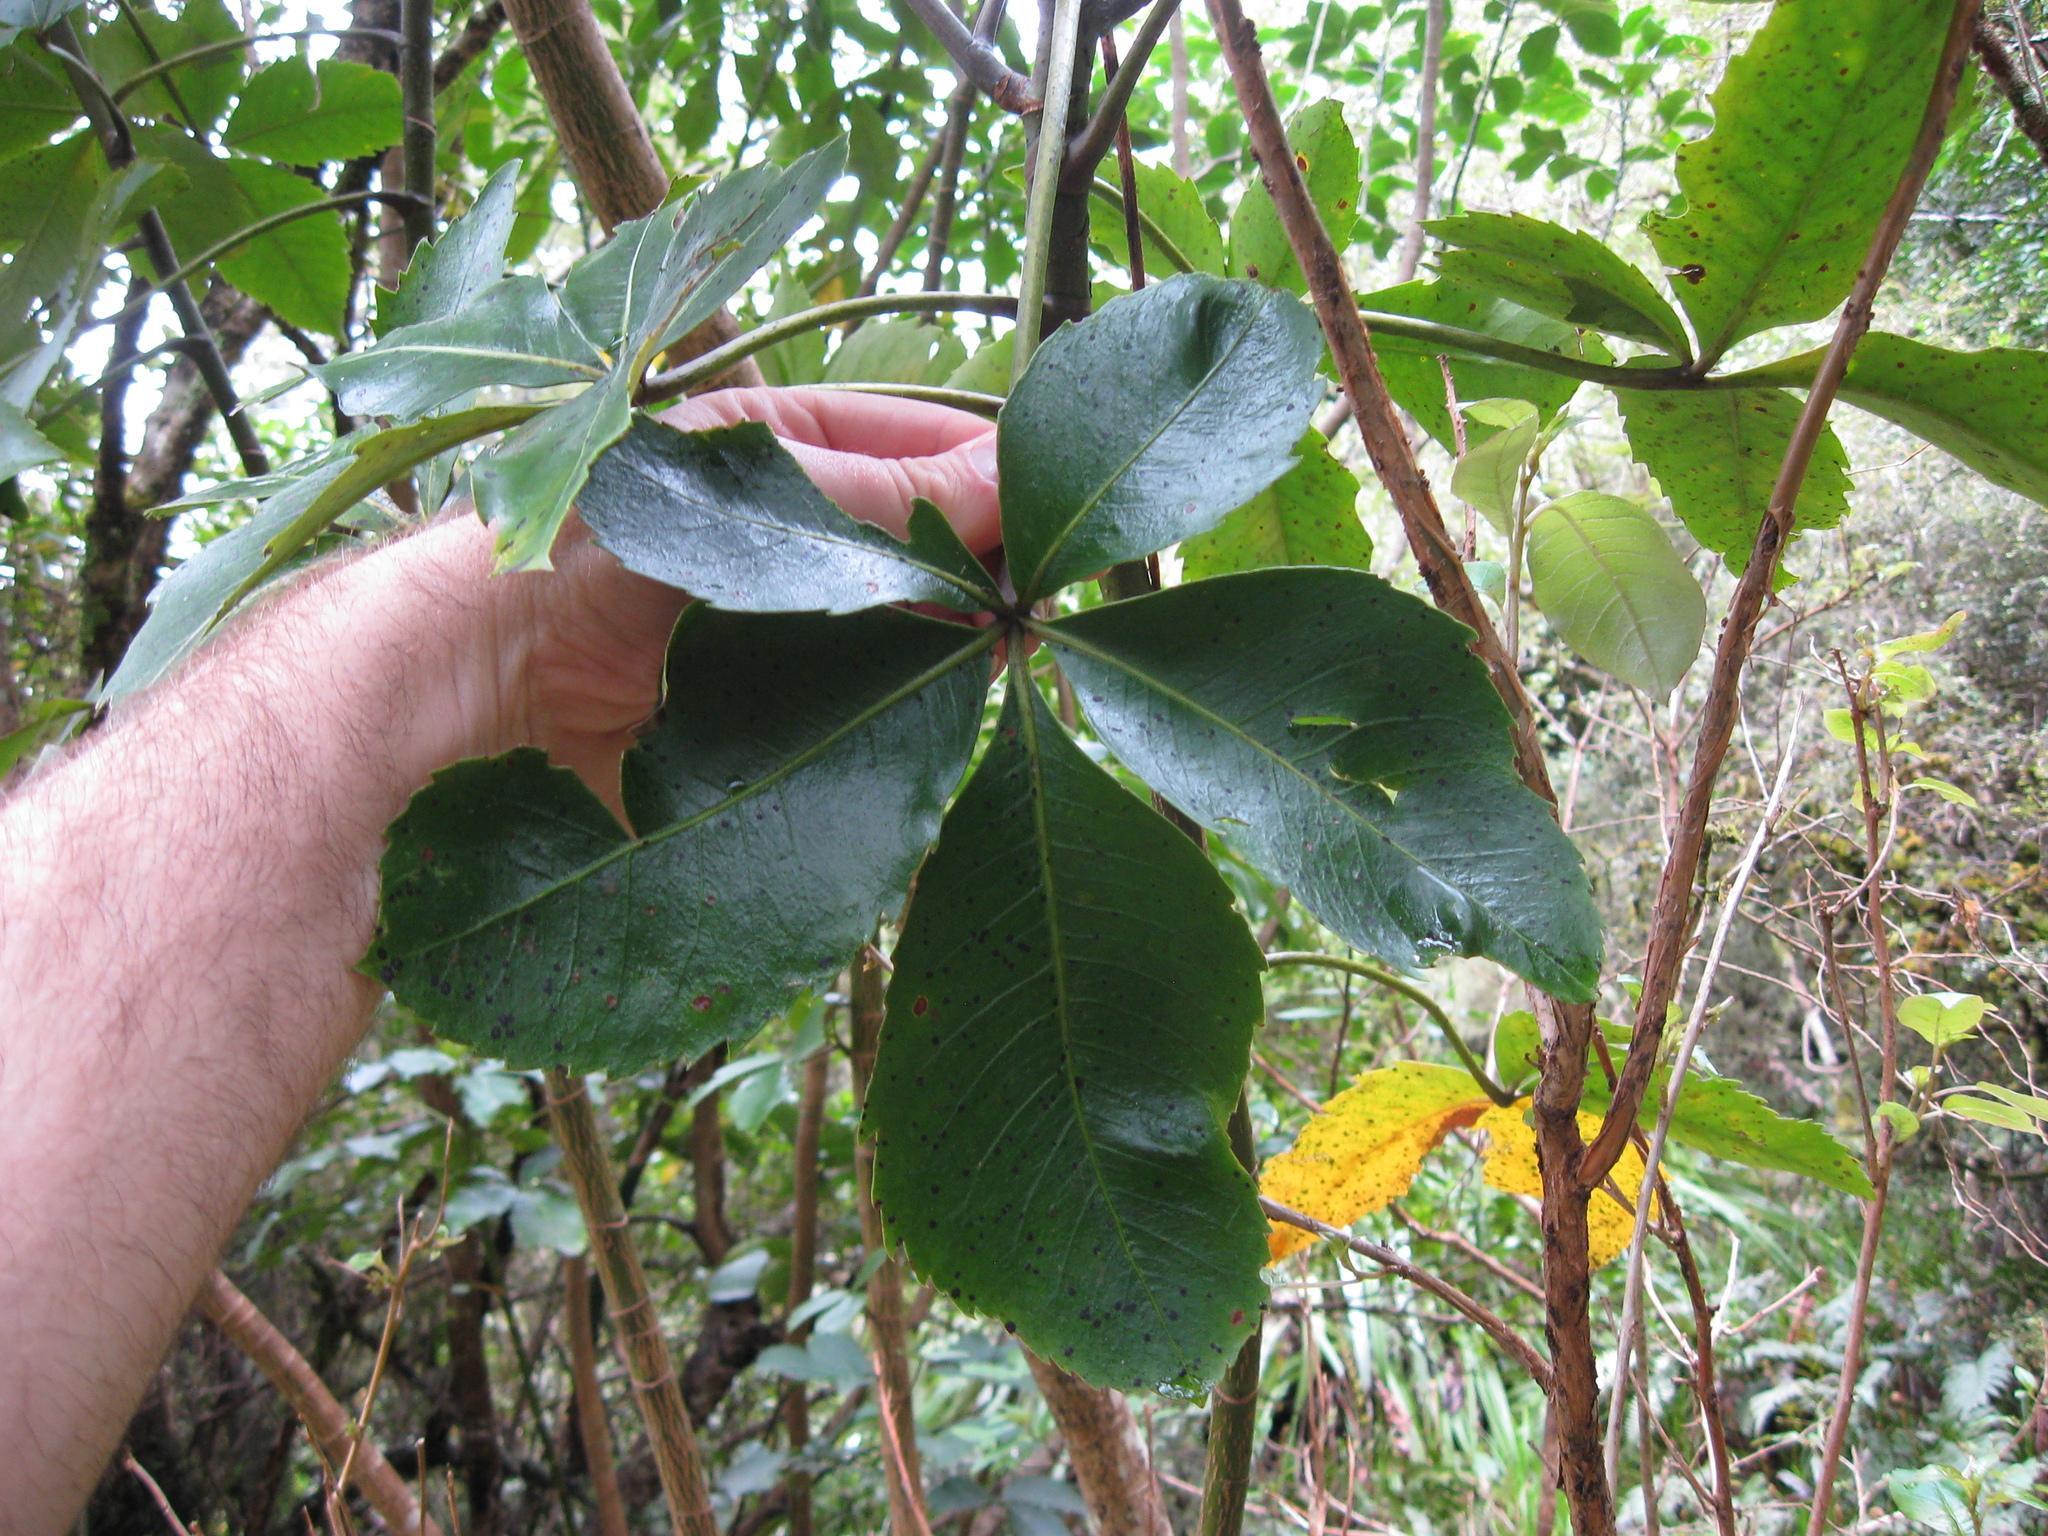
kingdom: Plantae
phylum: Tracheophyta
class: Magnoliopsida
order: Apiales
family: Araliaceae
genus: Neopanax
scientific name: Neopanax colensoi
